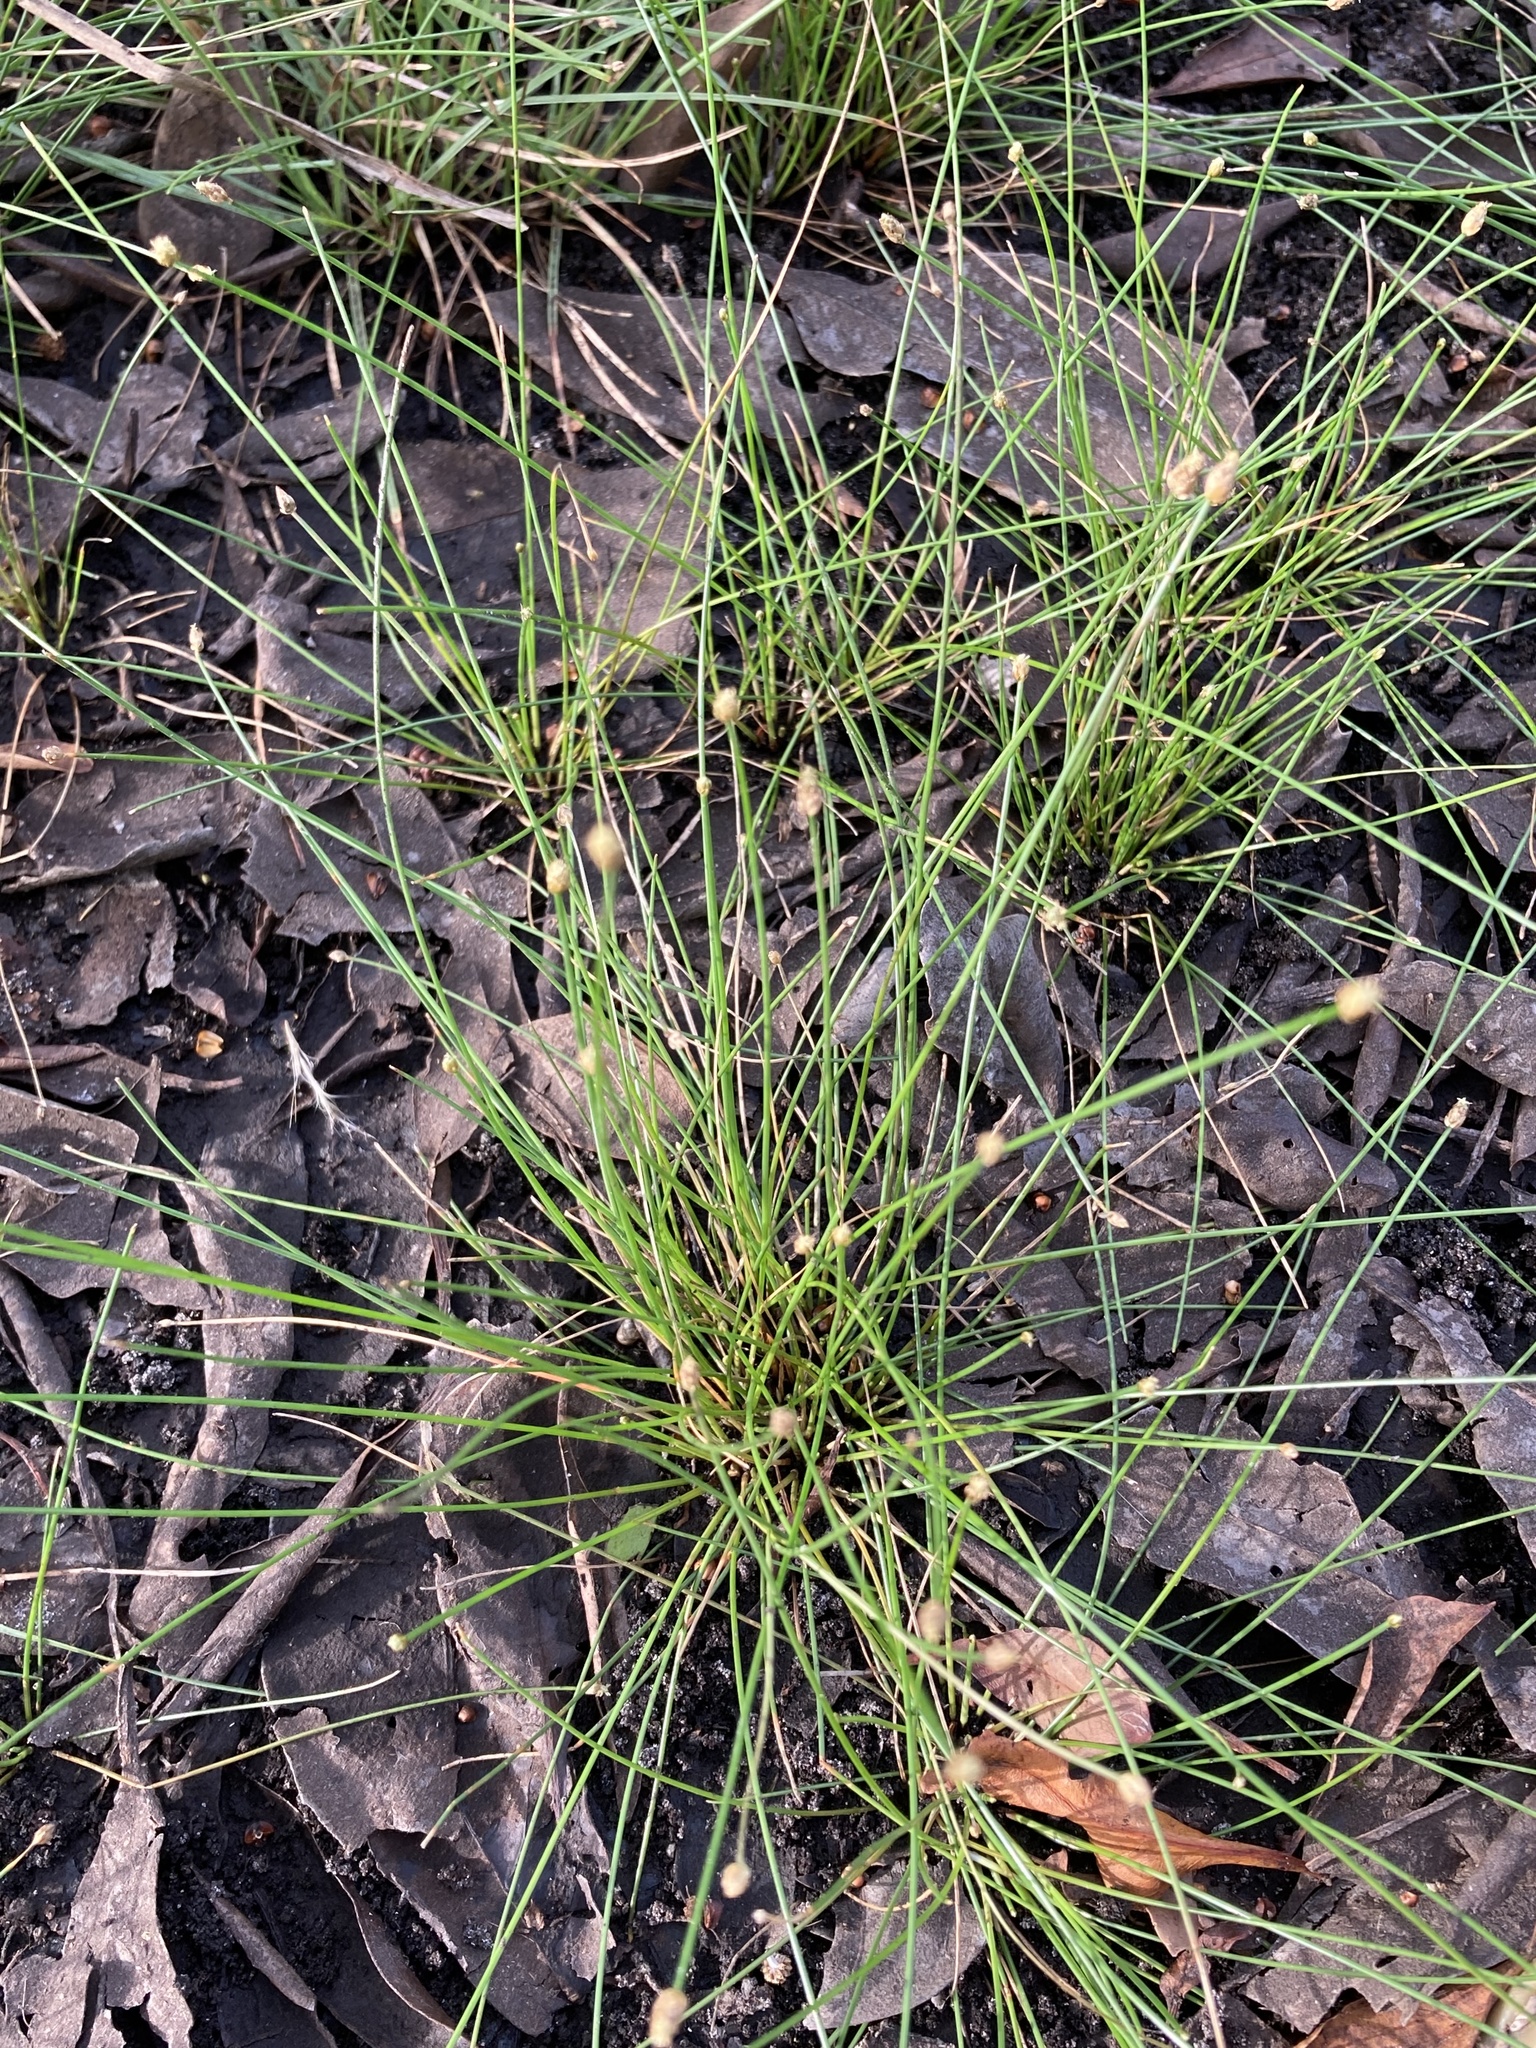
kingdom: Plantae
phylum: Tracheophyta
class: Liliopsida
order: Poales
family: Cyperaceae
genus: Eleocharis
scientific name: Eleocharis geniculata
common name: Canada spikesedge
